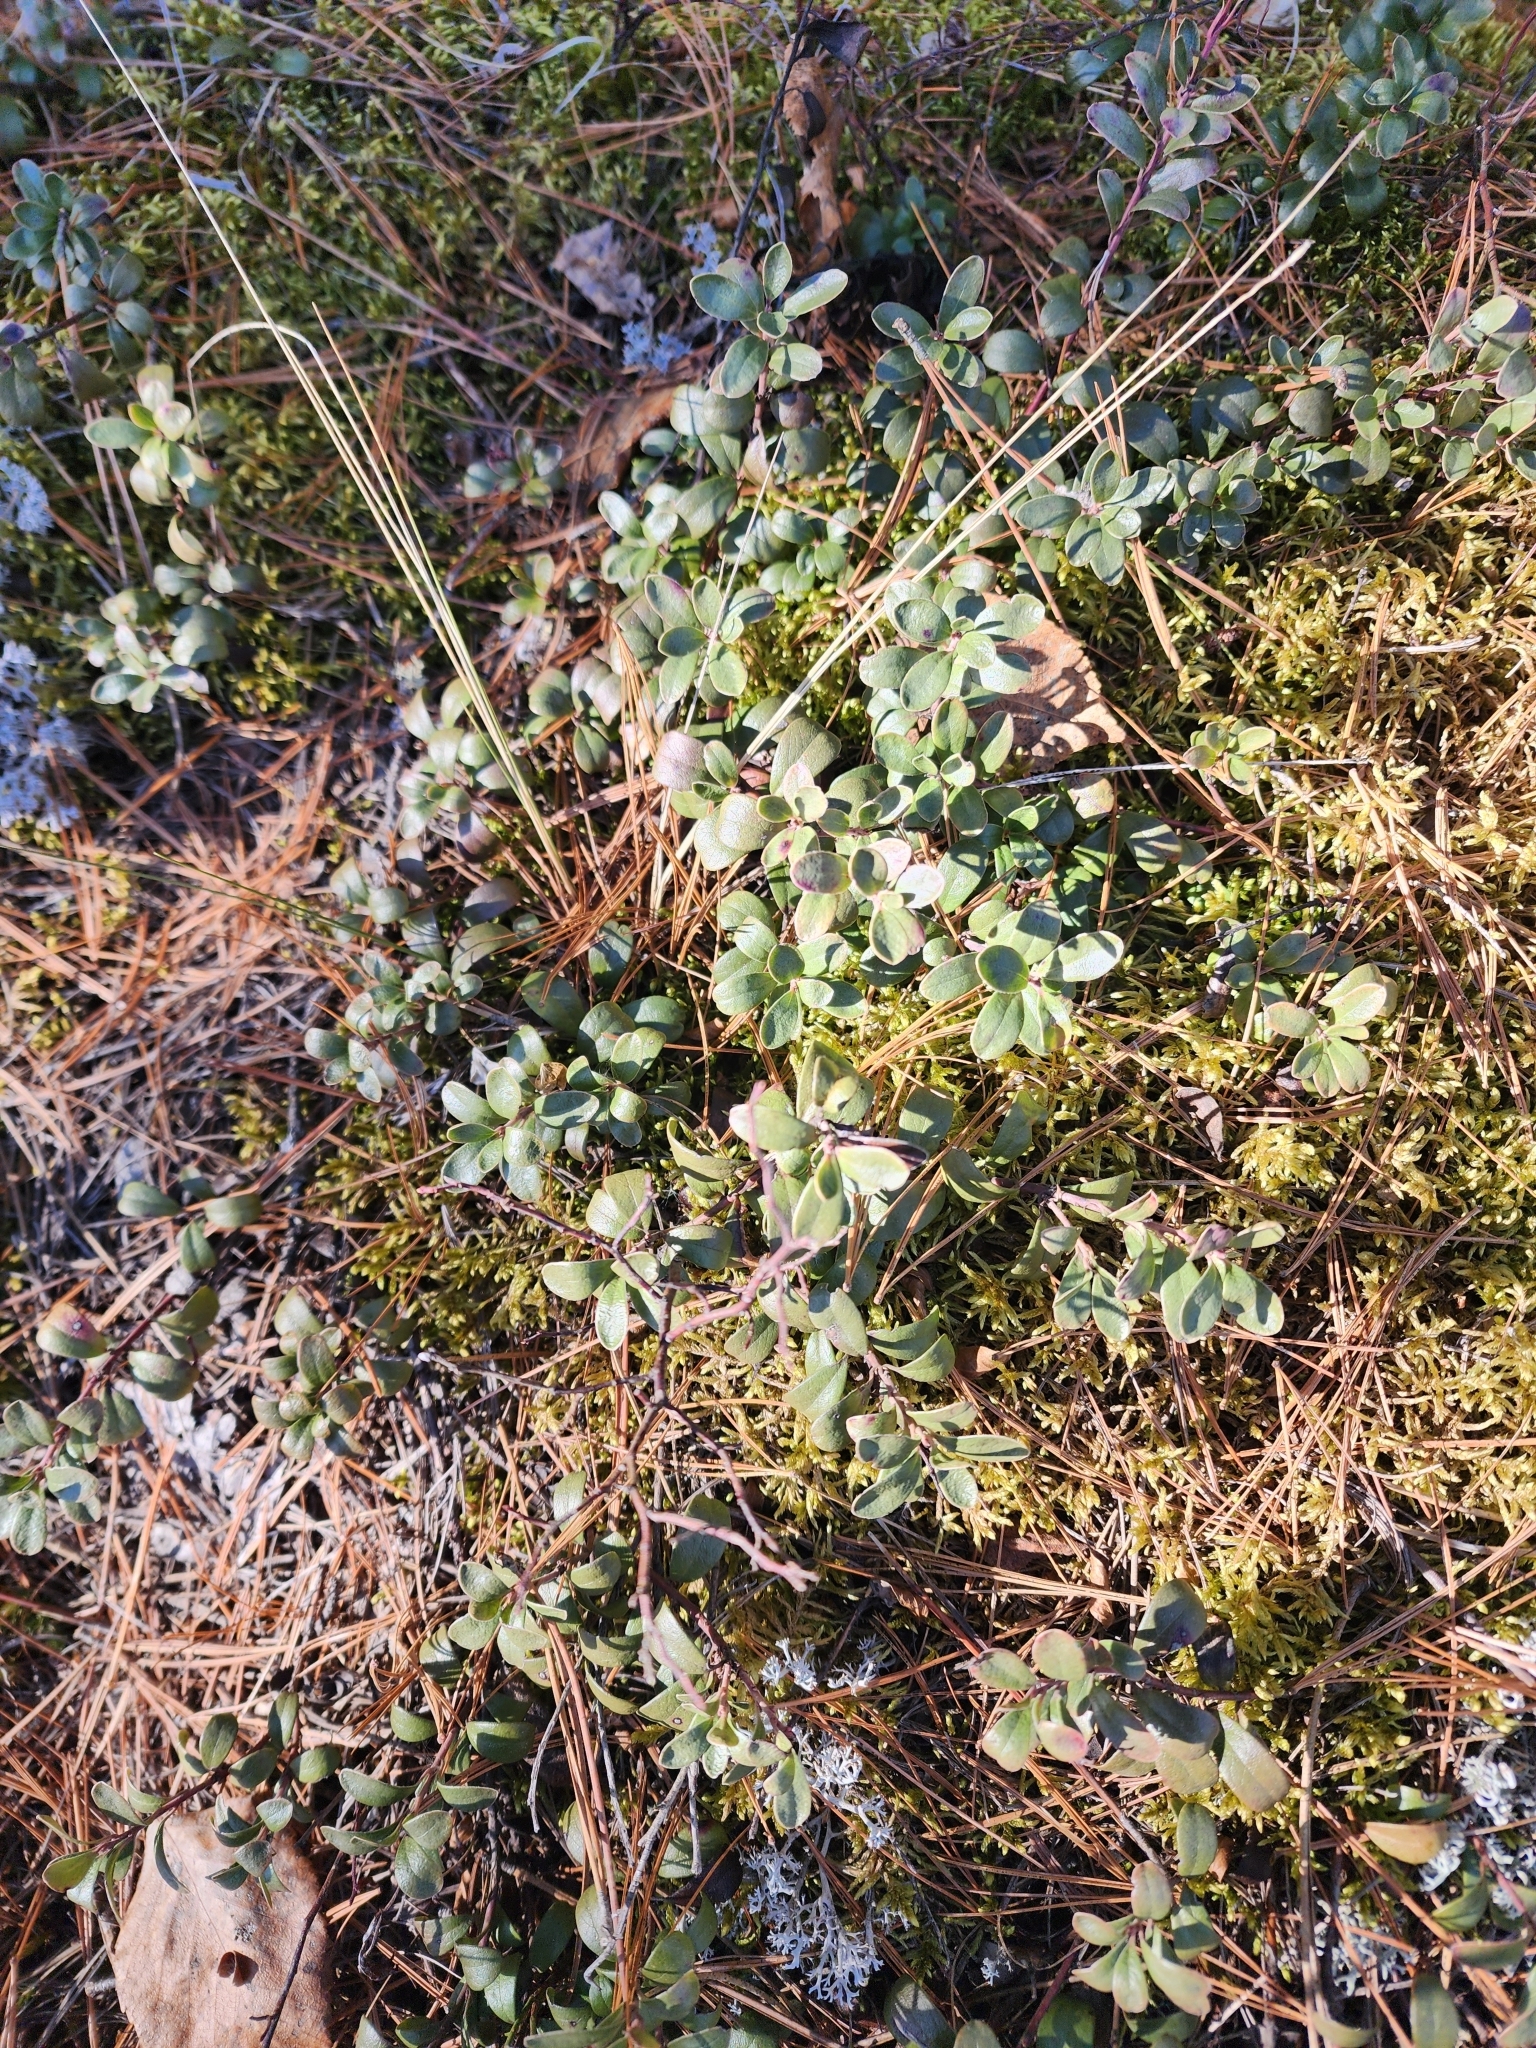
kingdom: Plantae
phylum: Tracheophyta
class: Magnoliopsida
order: Ericales
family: Ericaceae
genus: Arctostaphylos
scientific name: Arctostaphylos uva-ursi
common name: Bearberry
